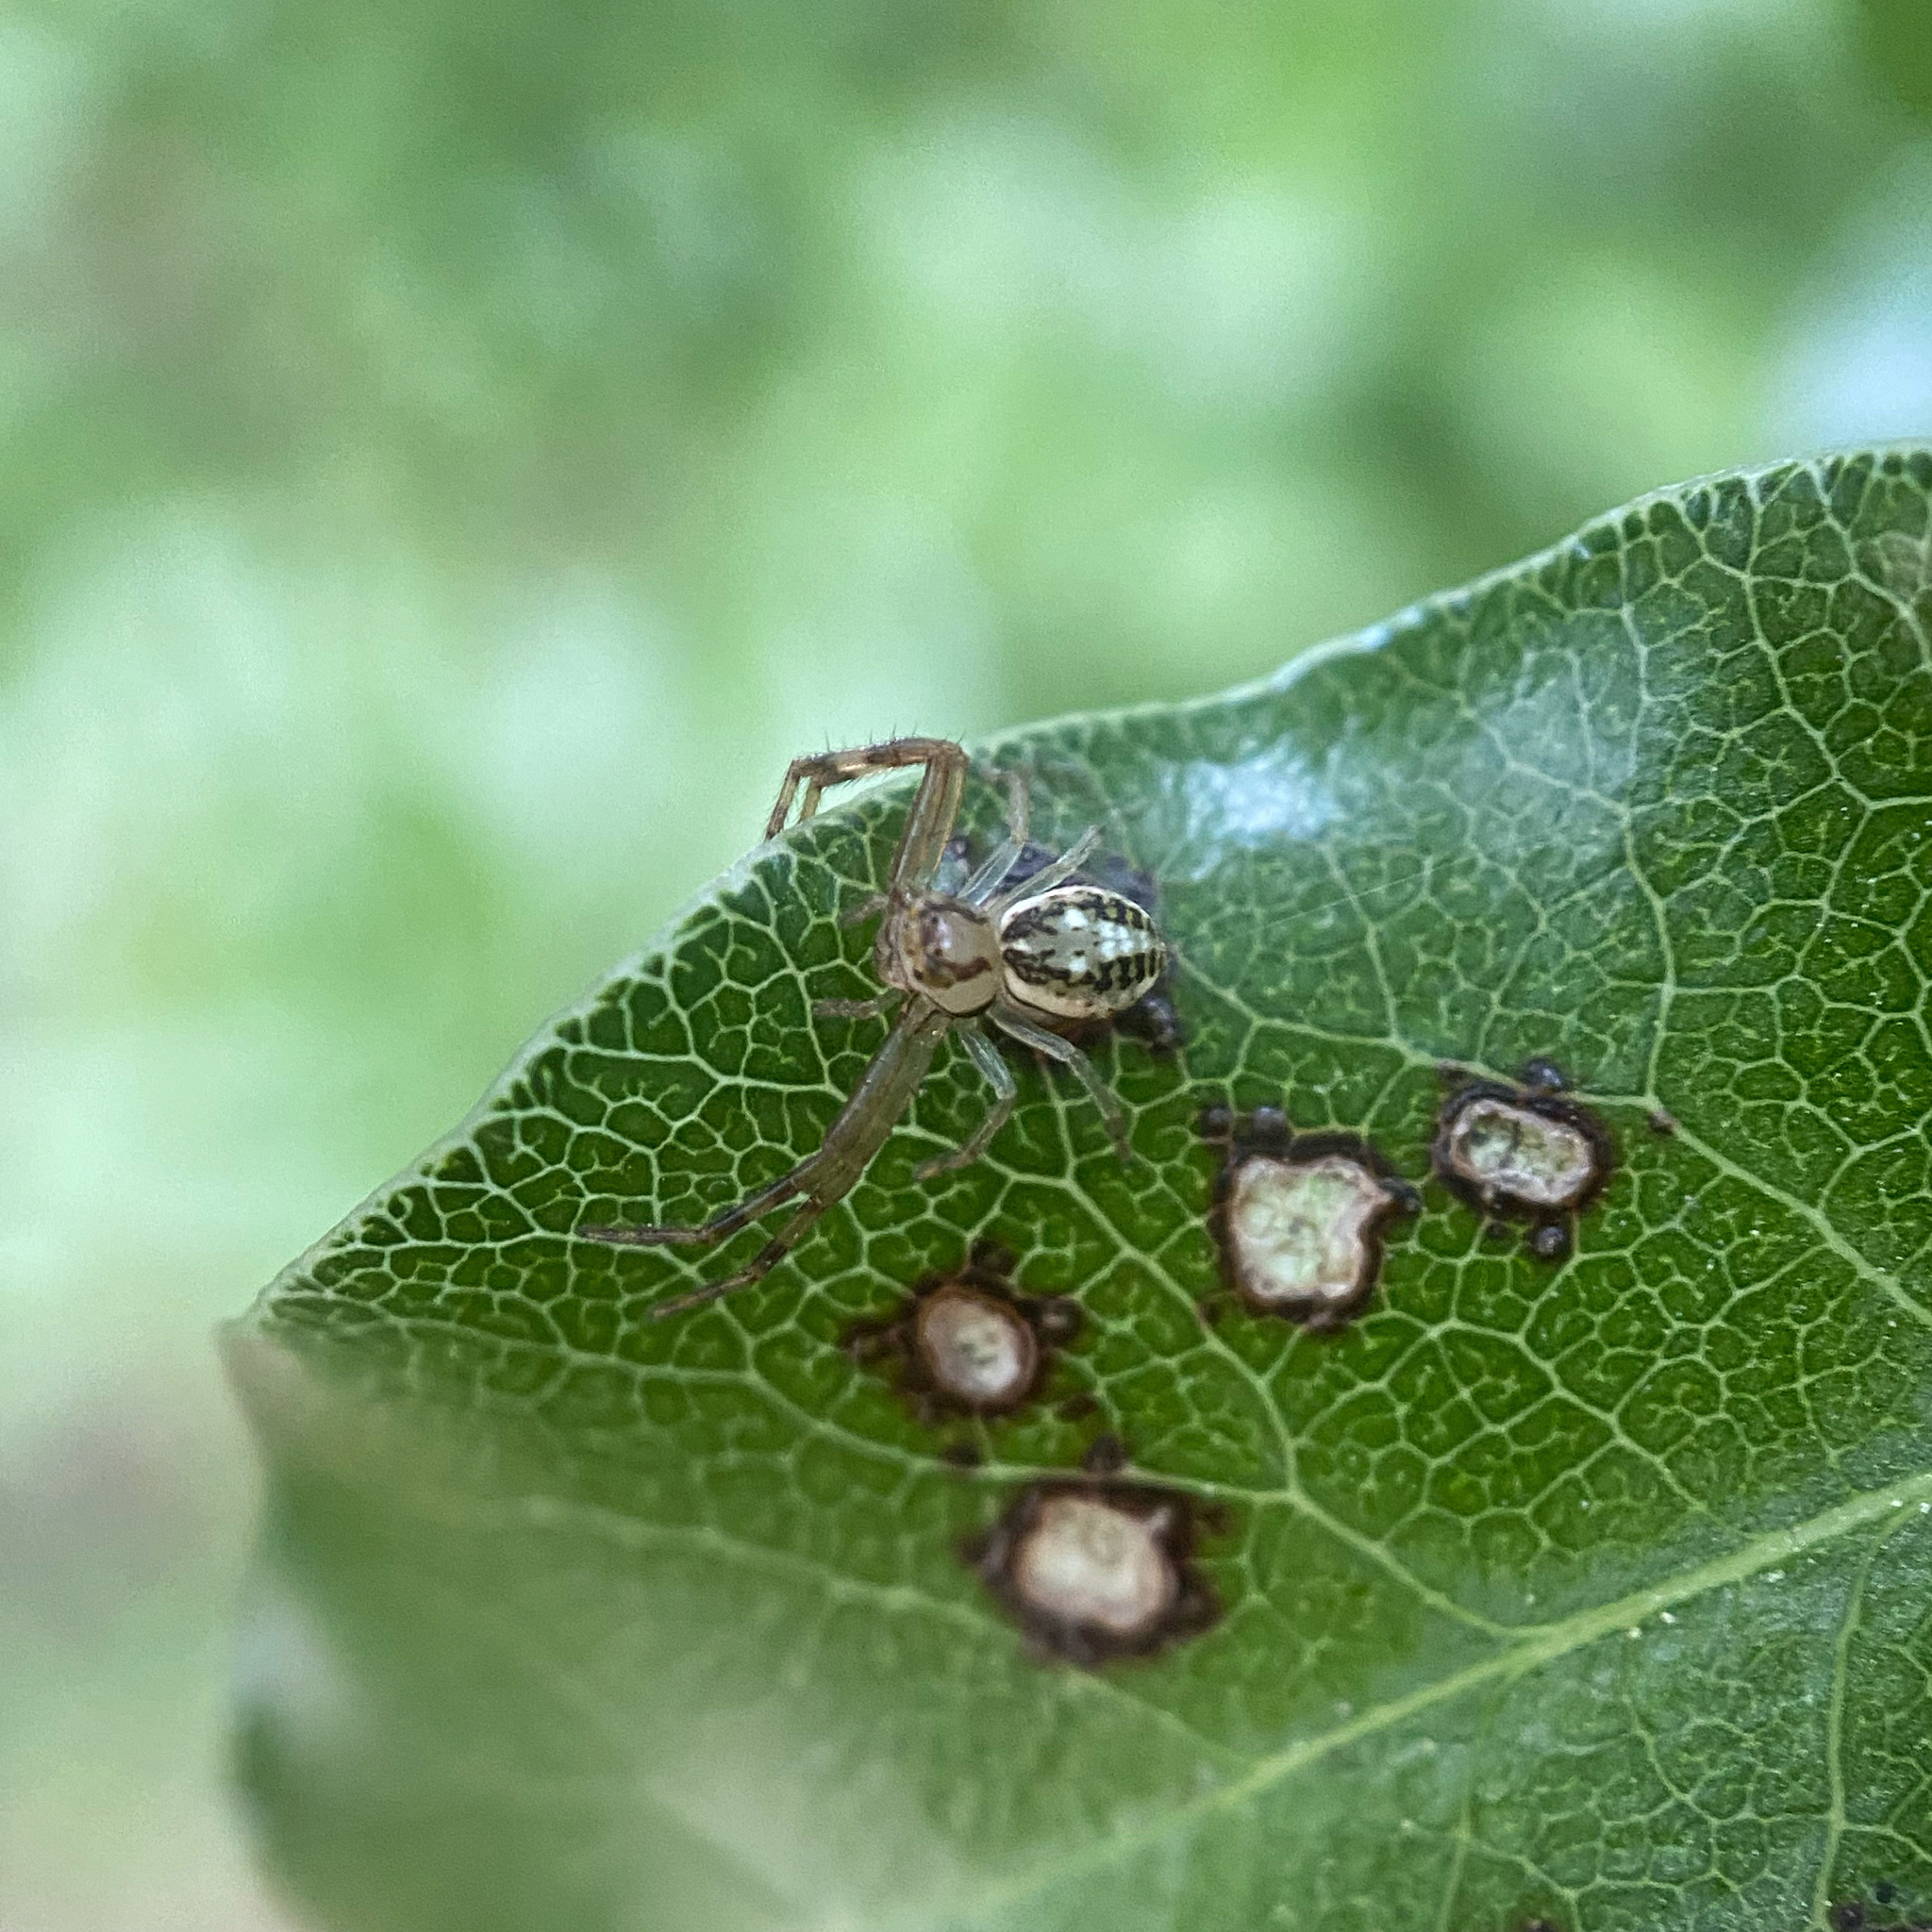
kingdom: Animalia
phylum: Arthropoda
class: Arachnida
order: Araneae
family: Thomisidae
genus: Diaea
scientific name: Diaea ambara
